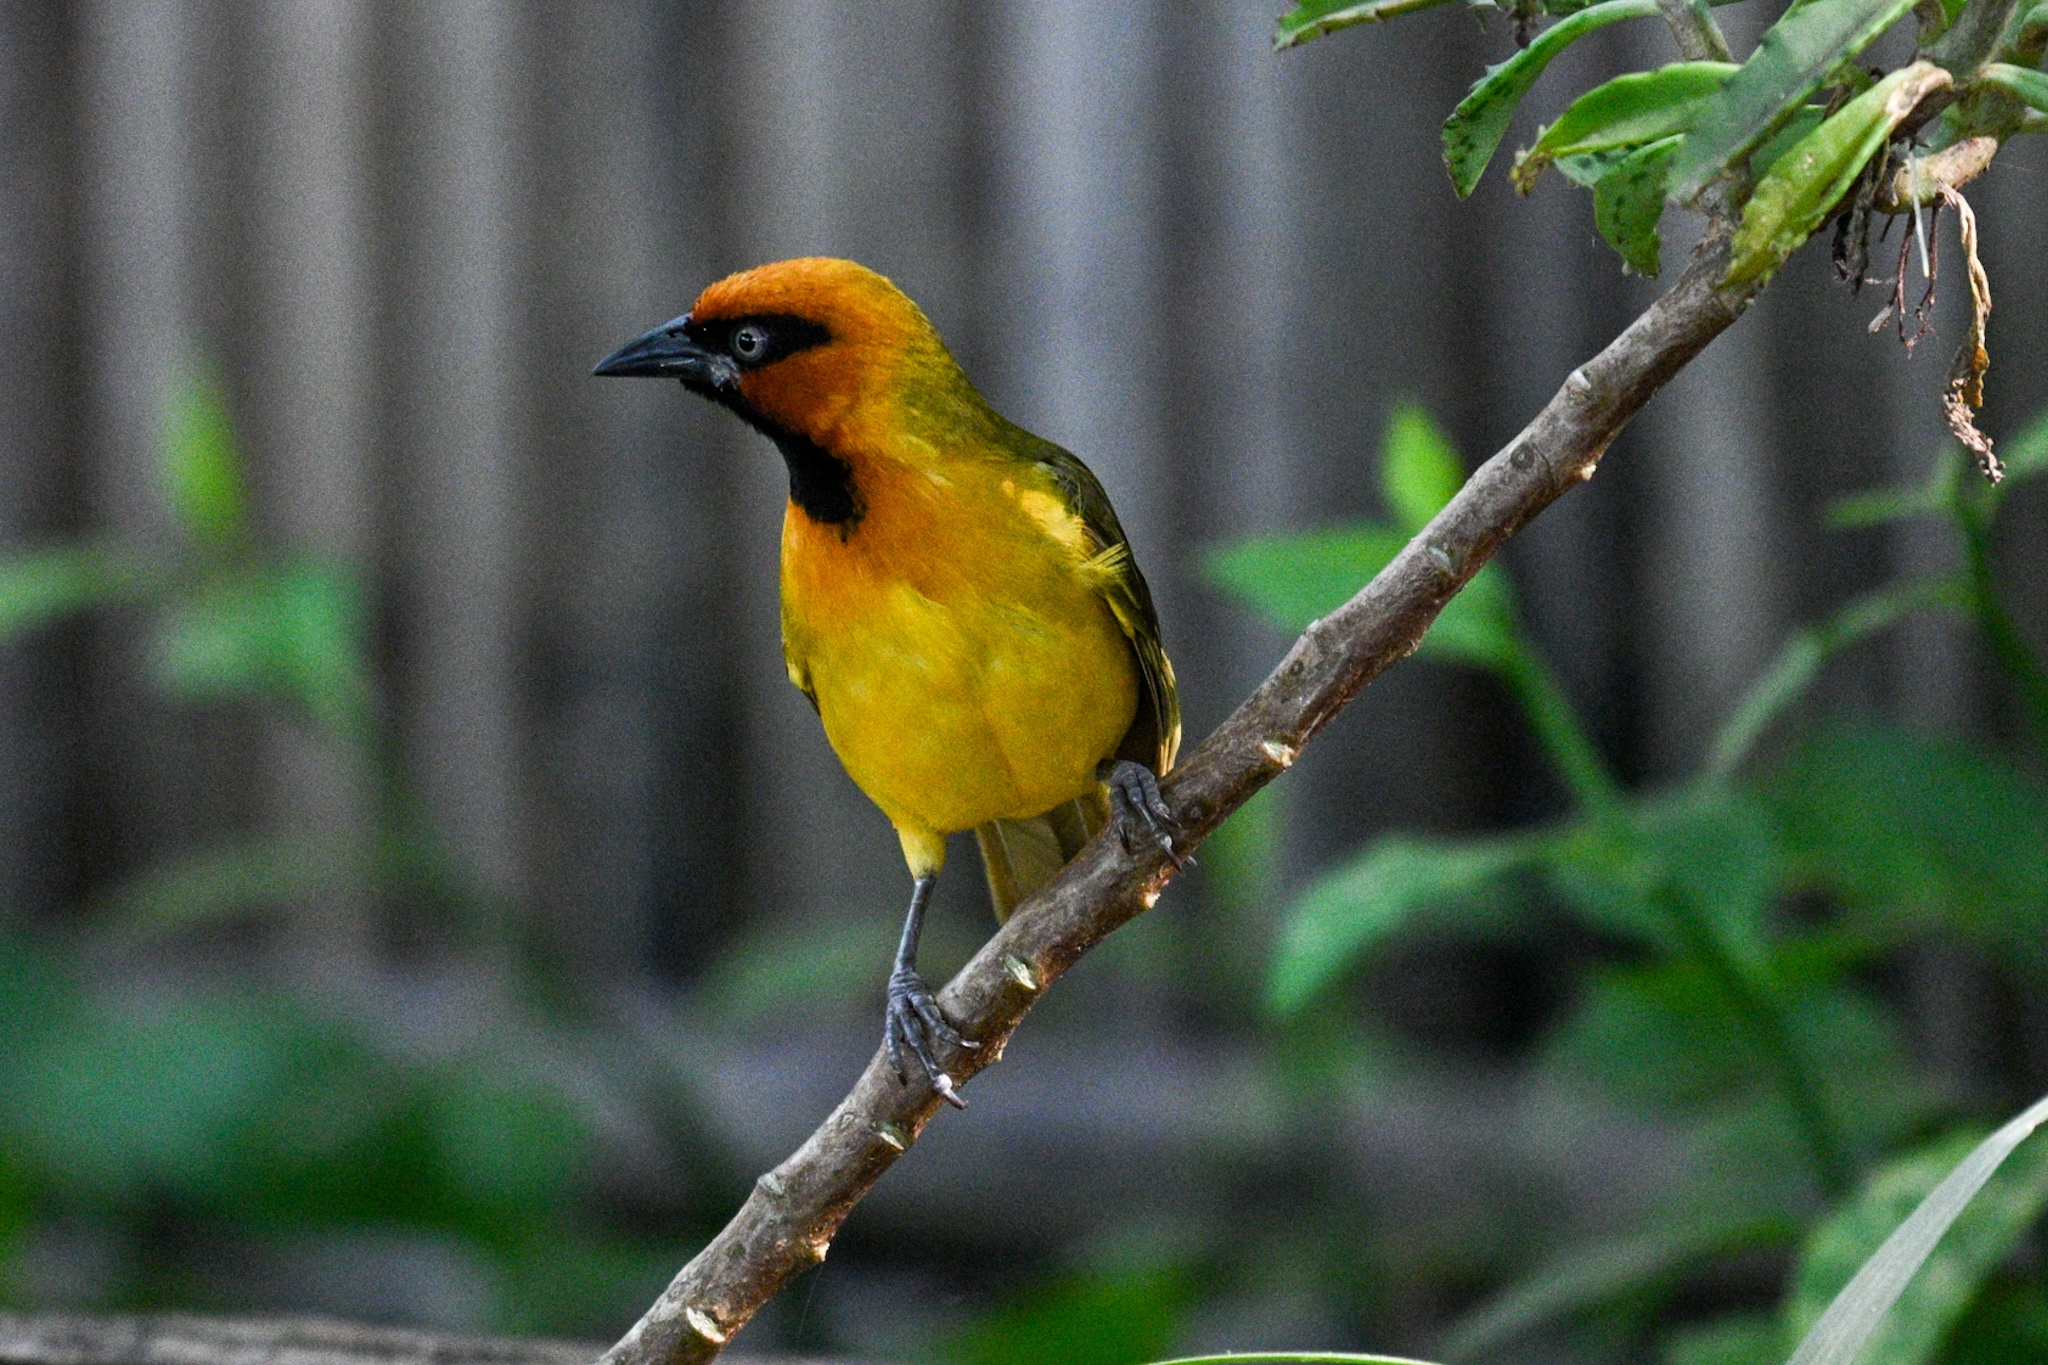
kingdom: Animalia
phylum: Chordata
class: Aves
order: Passeriformes
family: Ploceidae
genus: Ploceus
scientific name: Ploceus brachypterus
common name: Olive-naped weaver
